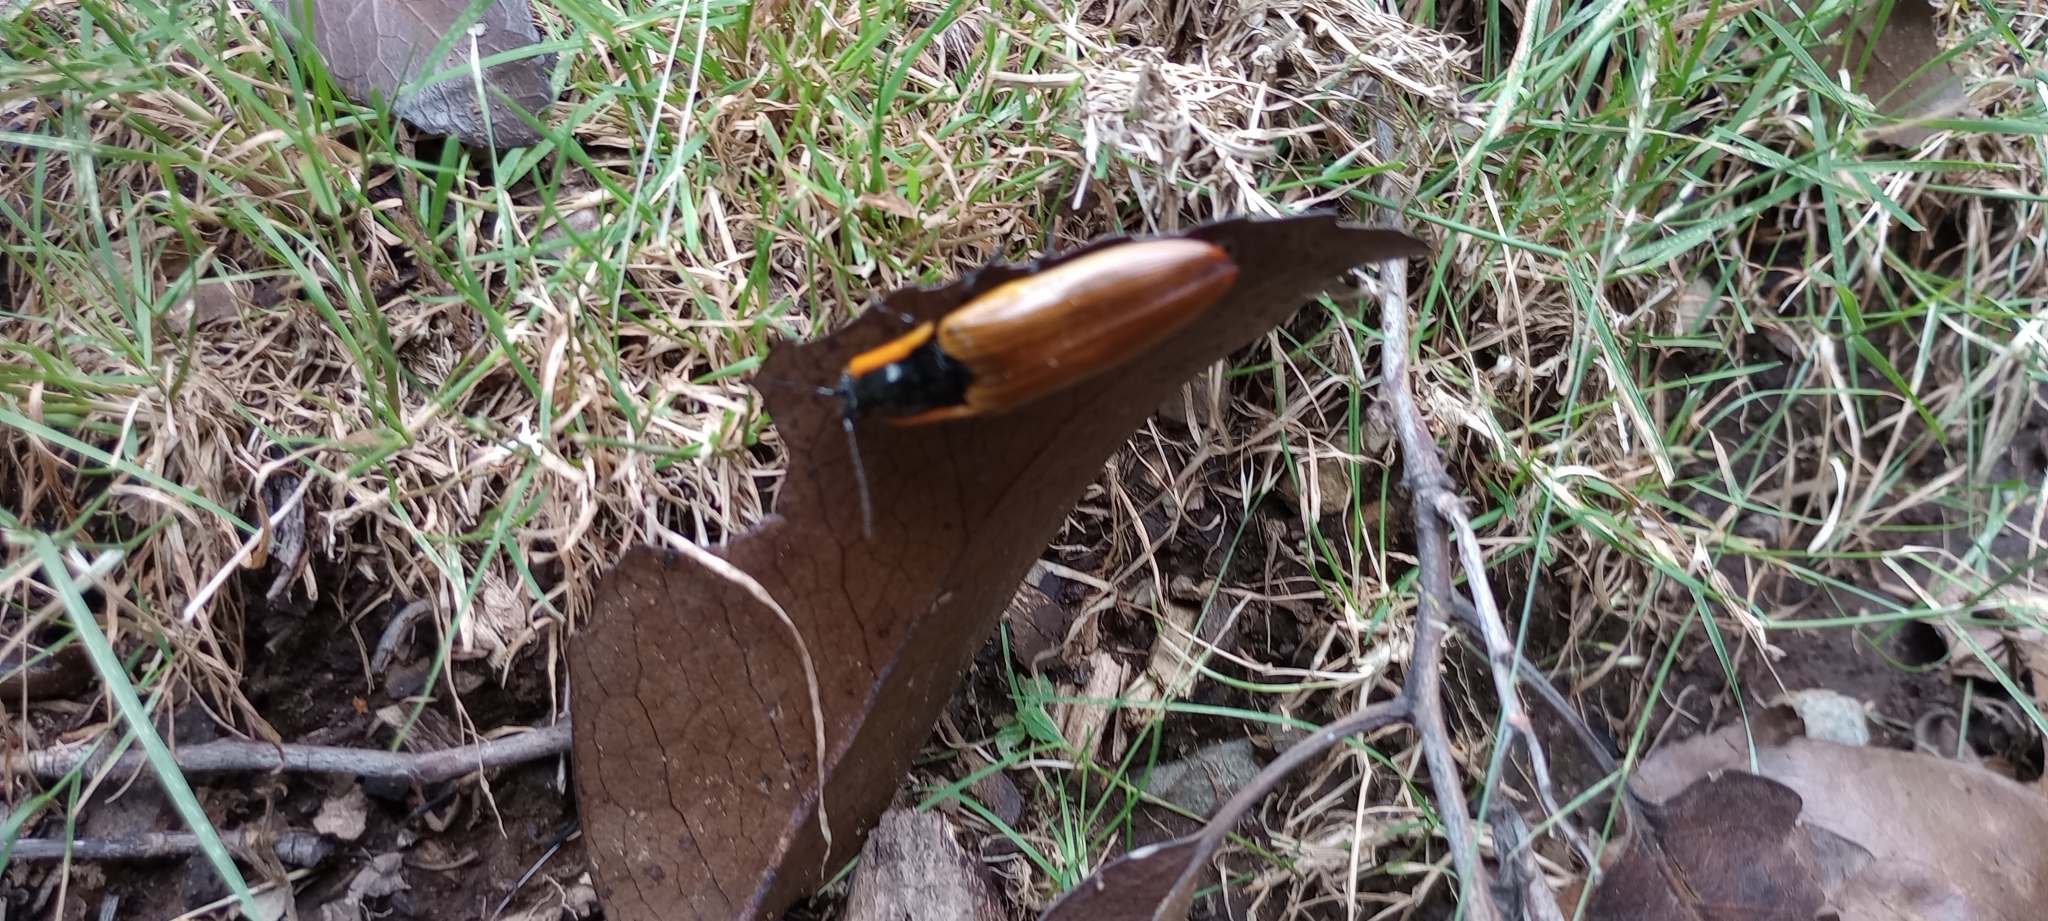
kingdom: Animalia
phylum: Arthropoda
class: Insecta
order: Coleoptera
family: Elateridae
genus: Semiotus
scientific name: Semiotus
